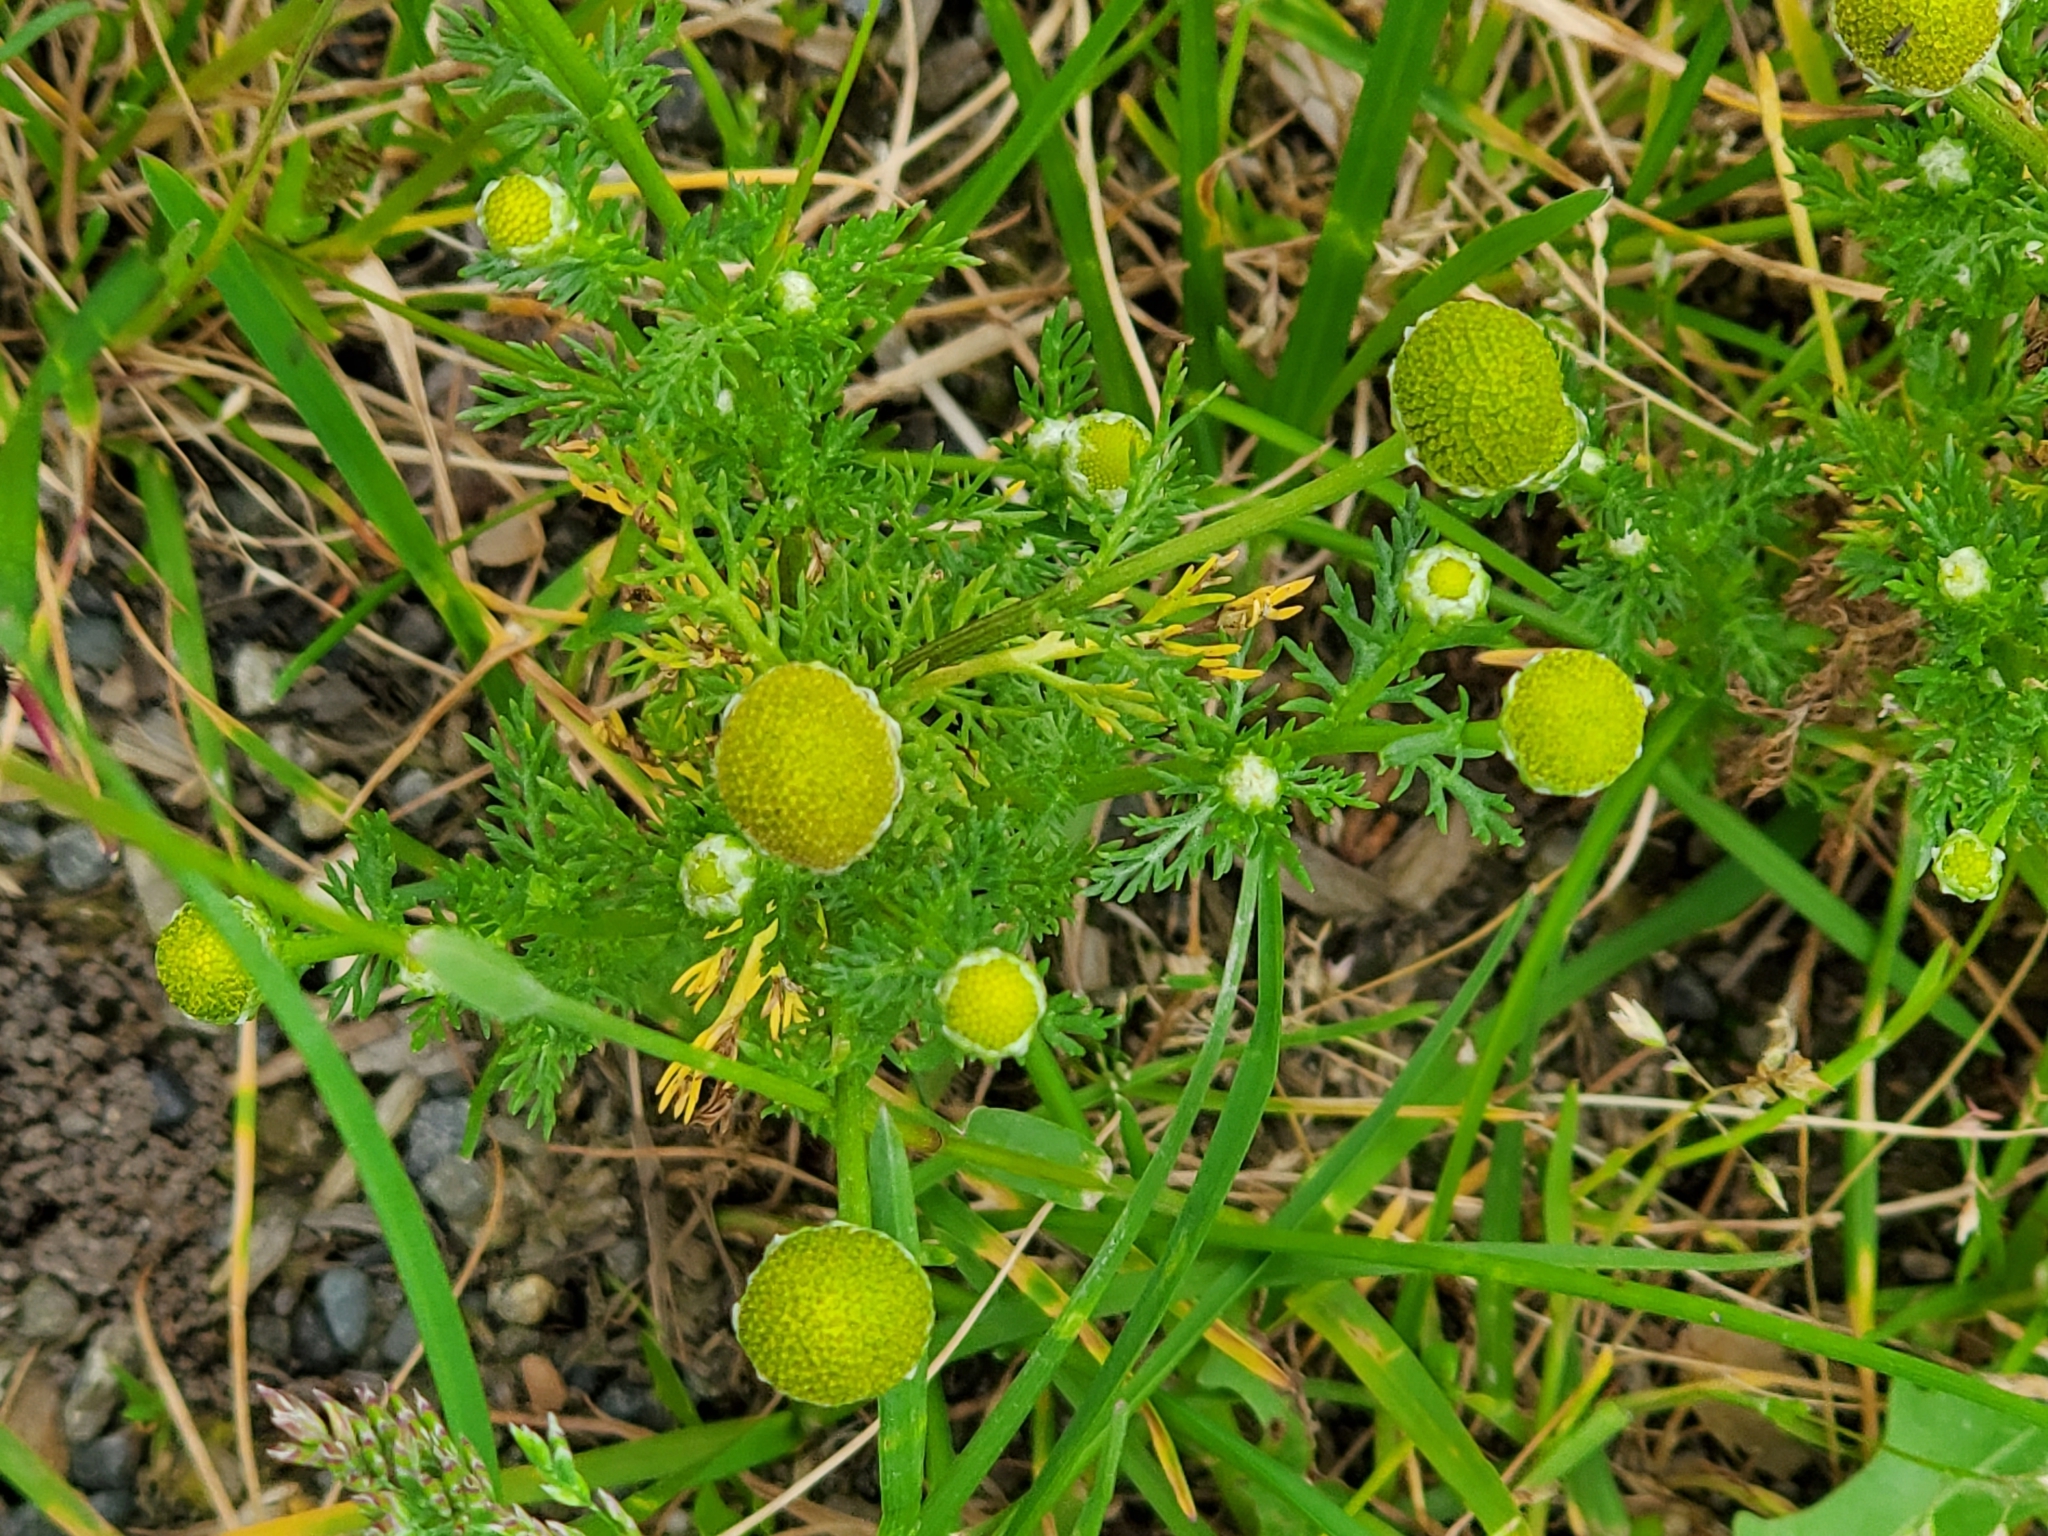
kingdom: Plantae
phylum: Tracheophyta
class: Magnoliopsida
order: Asterales
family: Asteraceae
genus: Matricaria
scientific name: Matricaria discoidea
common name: Disc mayweed
